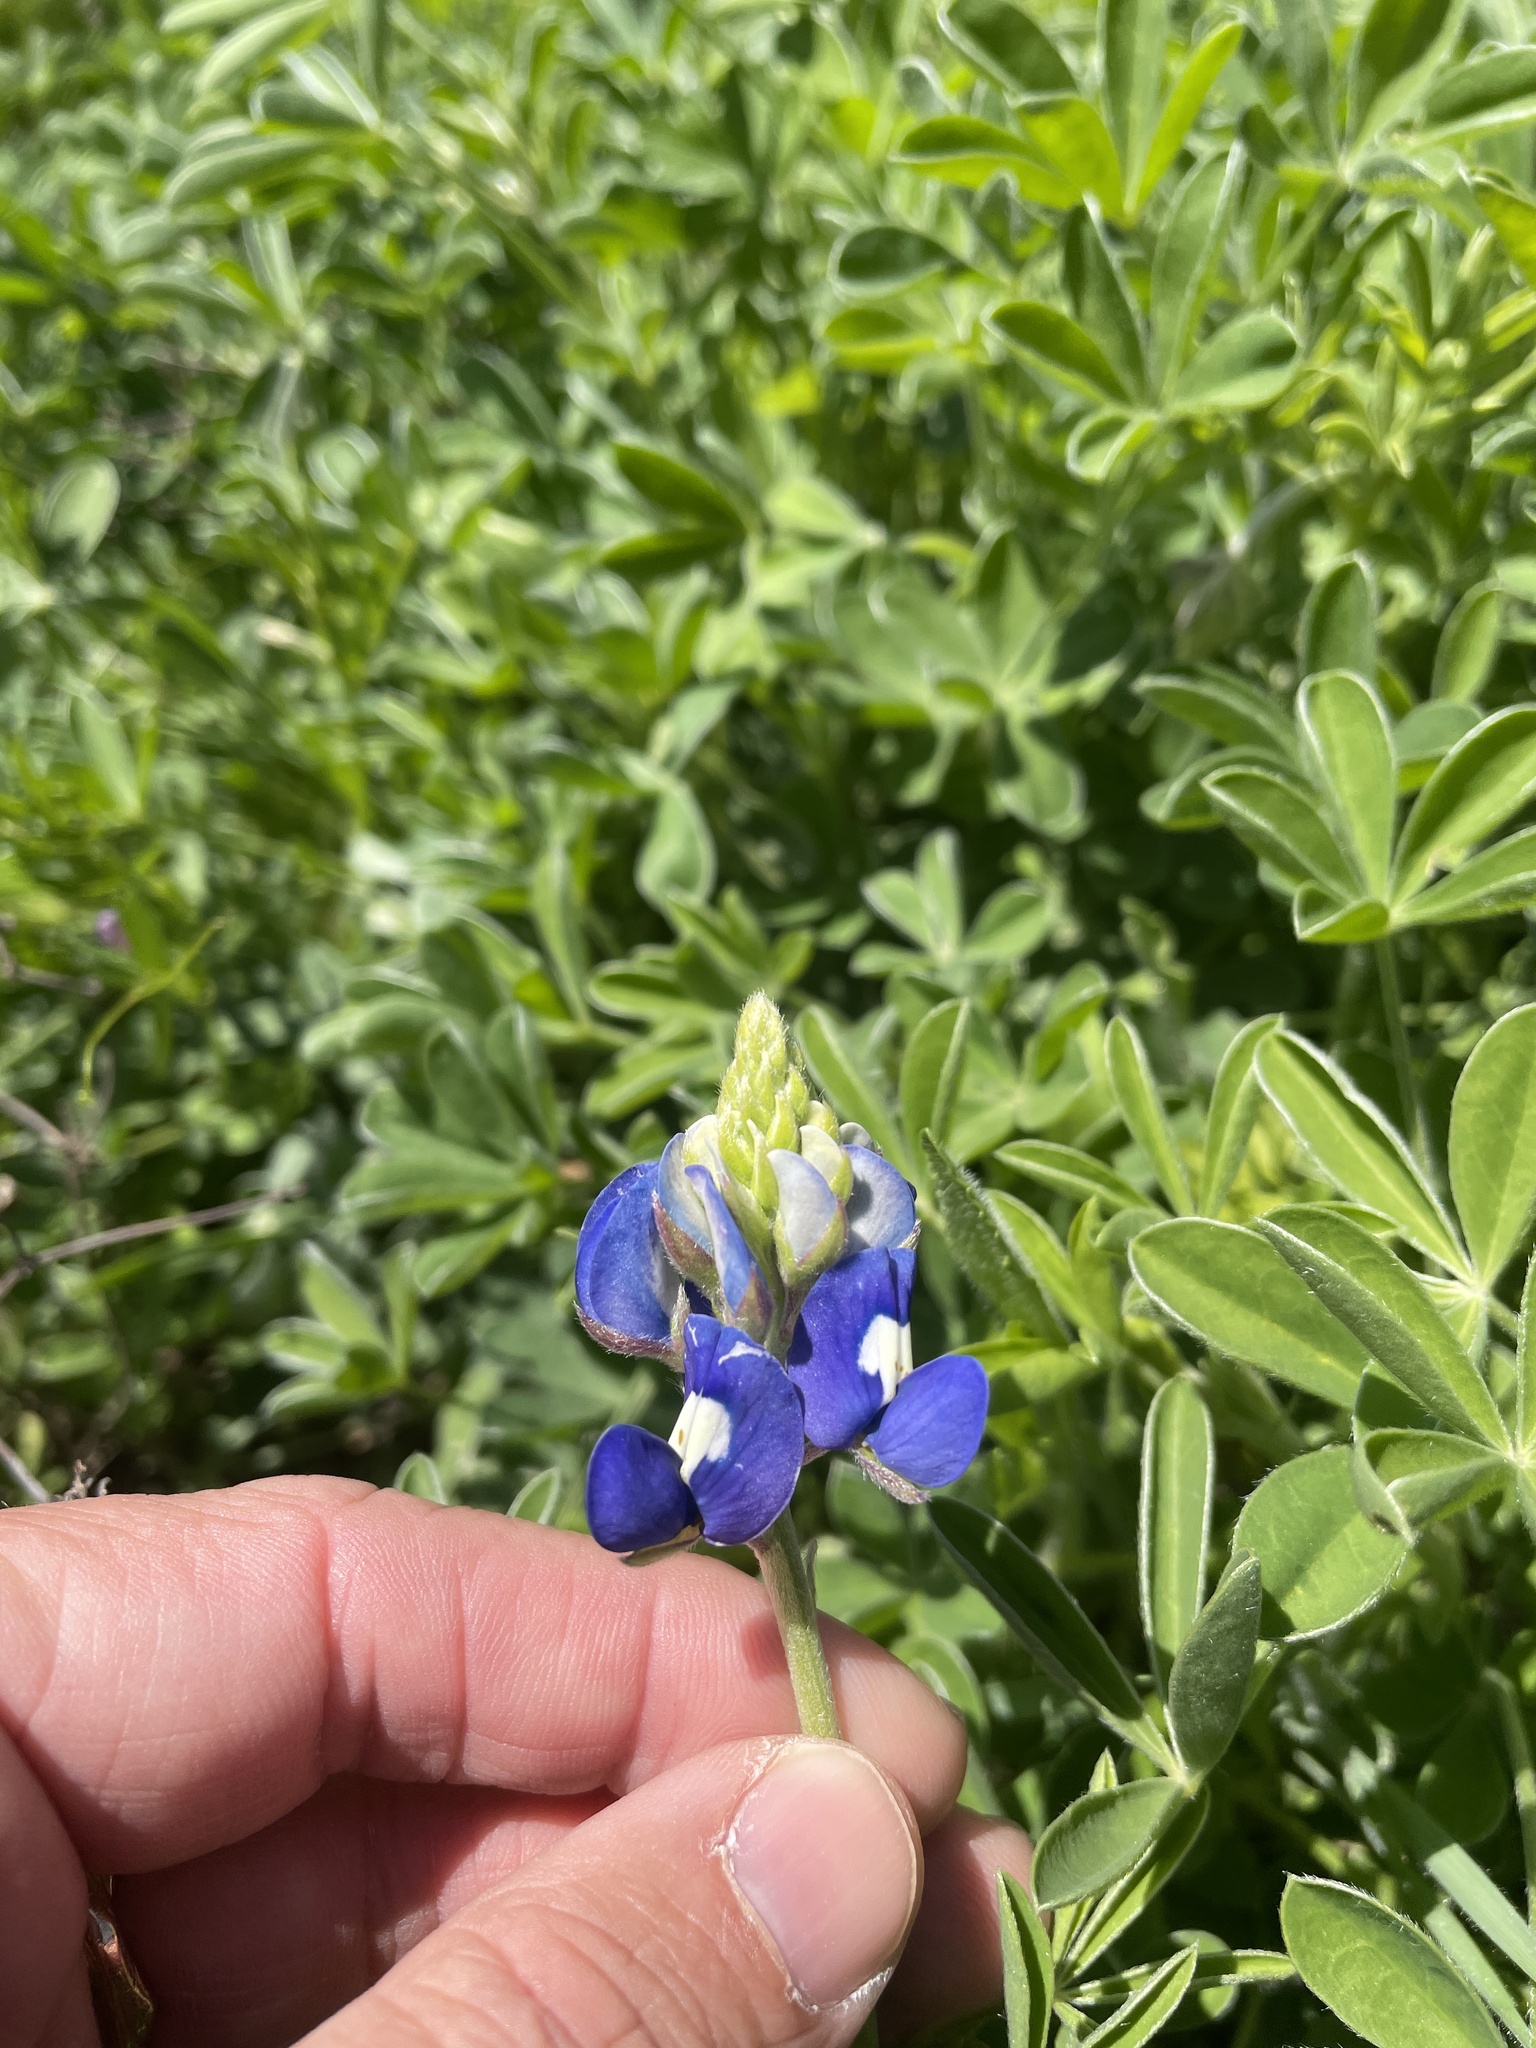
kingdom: Plantae
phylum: Tracheophyta
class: Magnoliopsida
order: Fabales
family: Fabaceae
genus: Lupinus
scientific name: Lupinus texensis
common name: Texas bluebonnet
